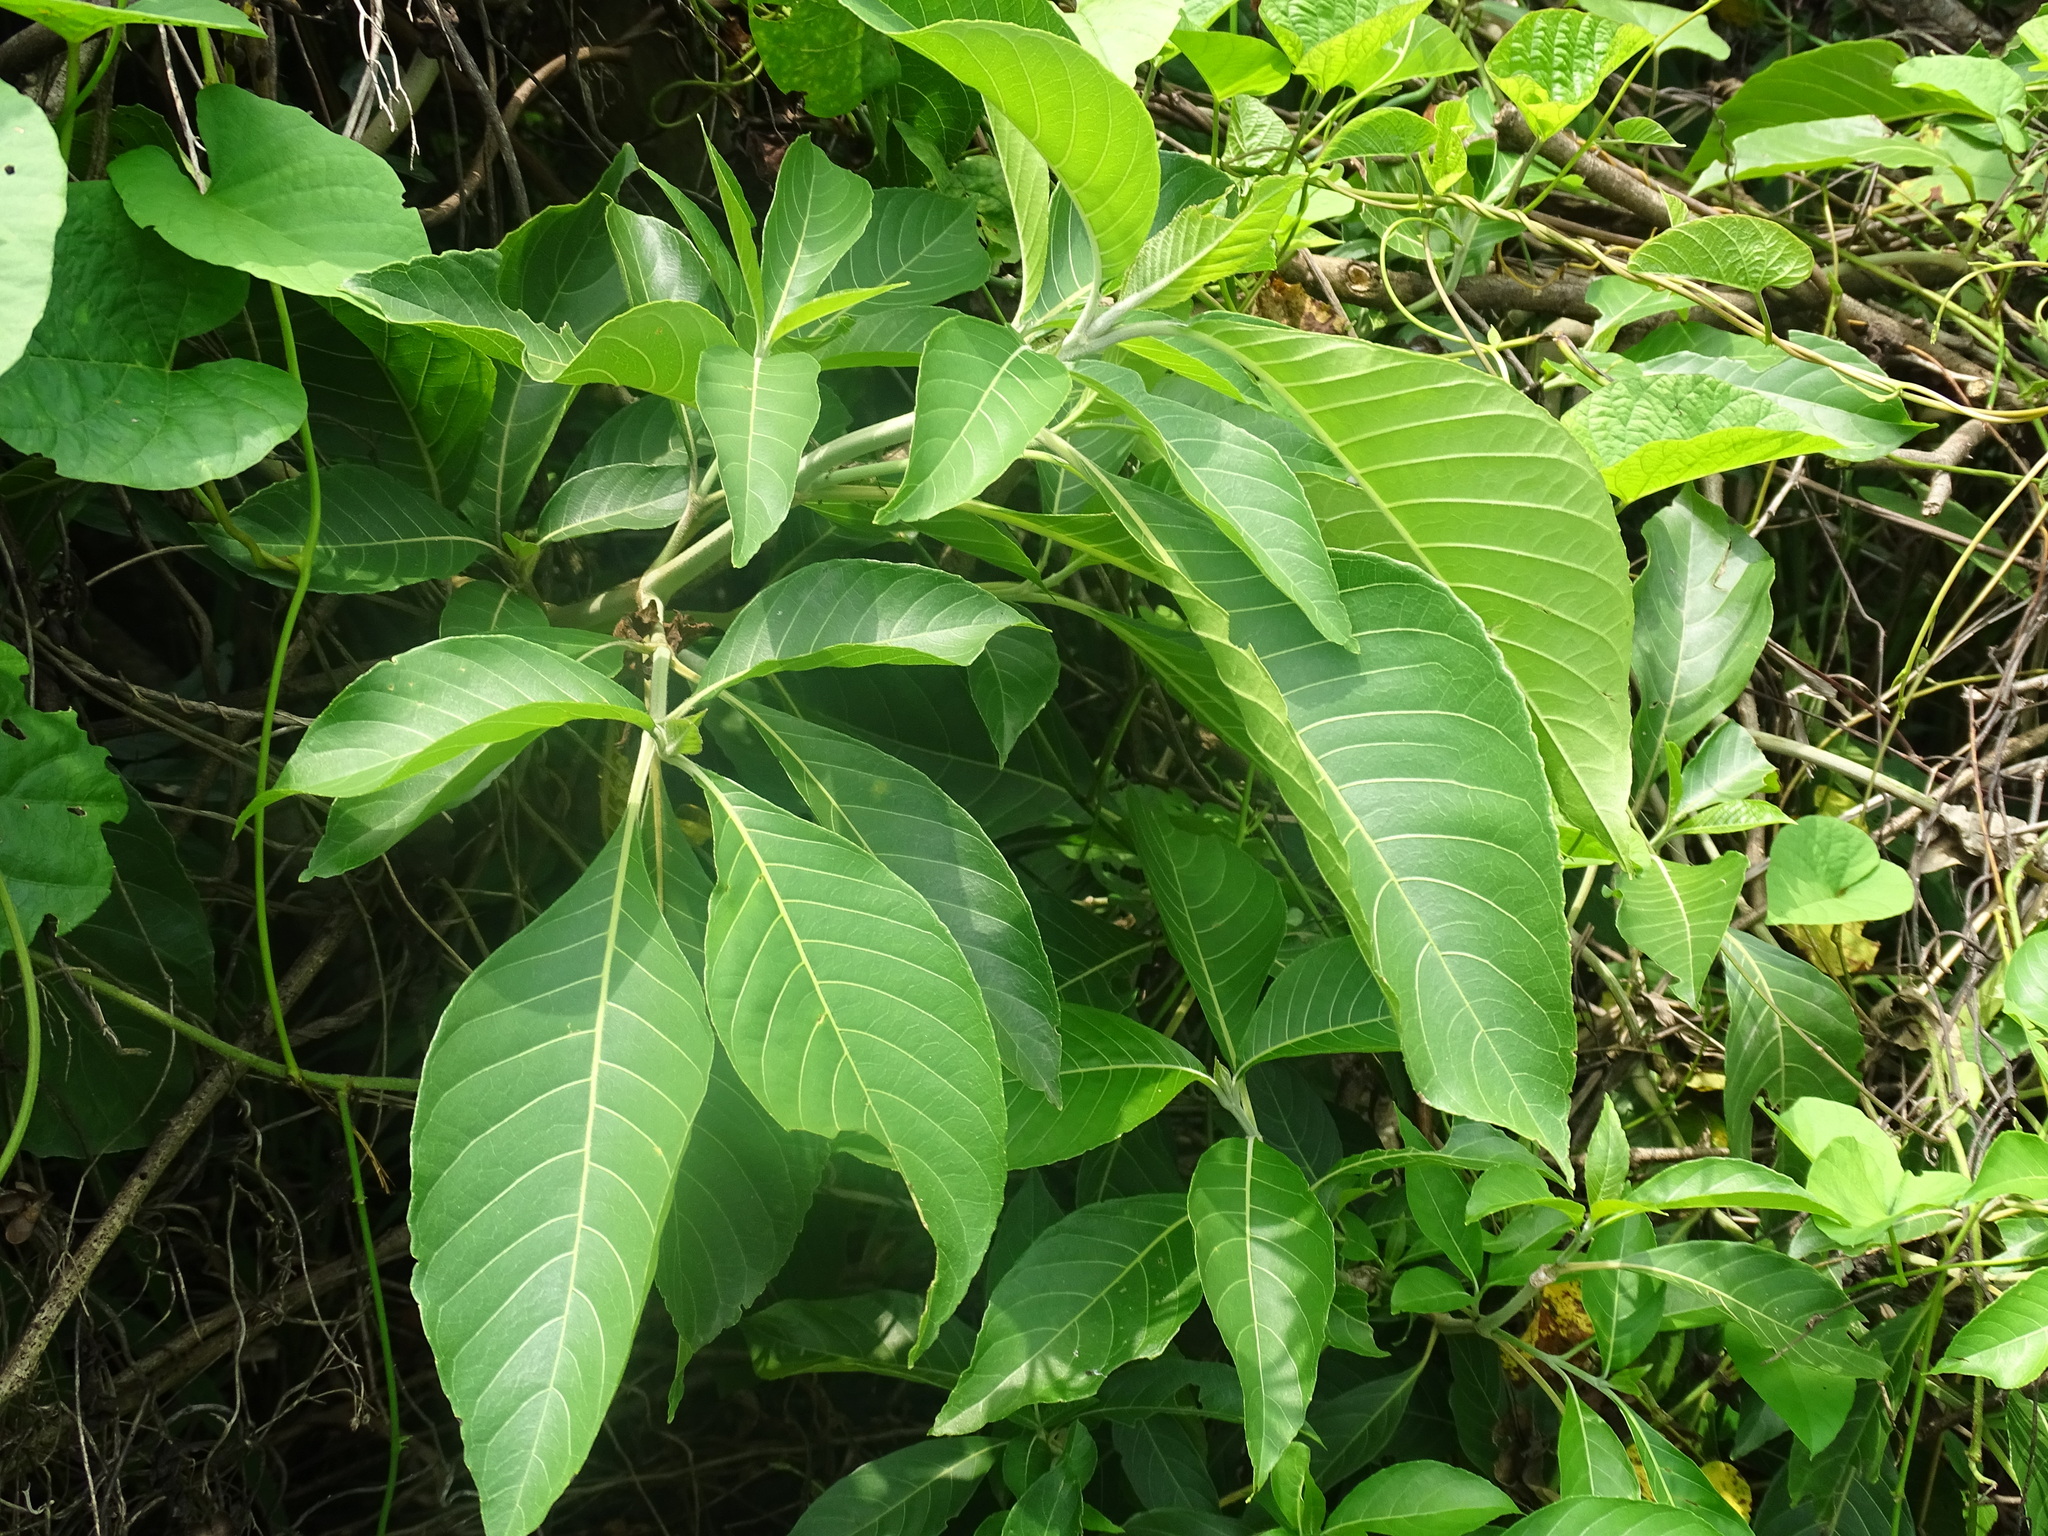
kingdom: Plantae
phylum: Tracheophyta
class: Magnoliopsida
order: Lamiales
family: Acanthaceae
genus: Bravaisia
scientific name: Bravaisia integerrima
